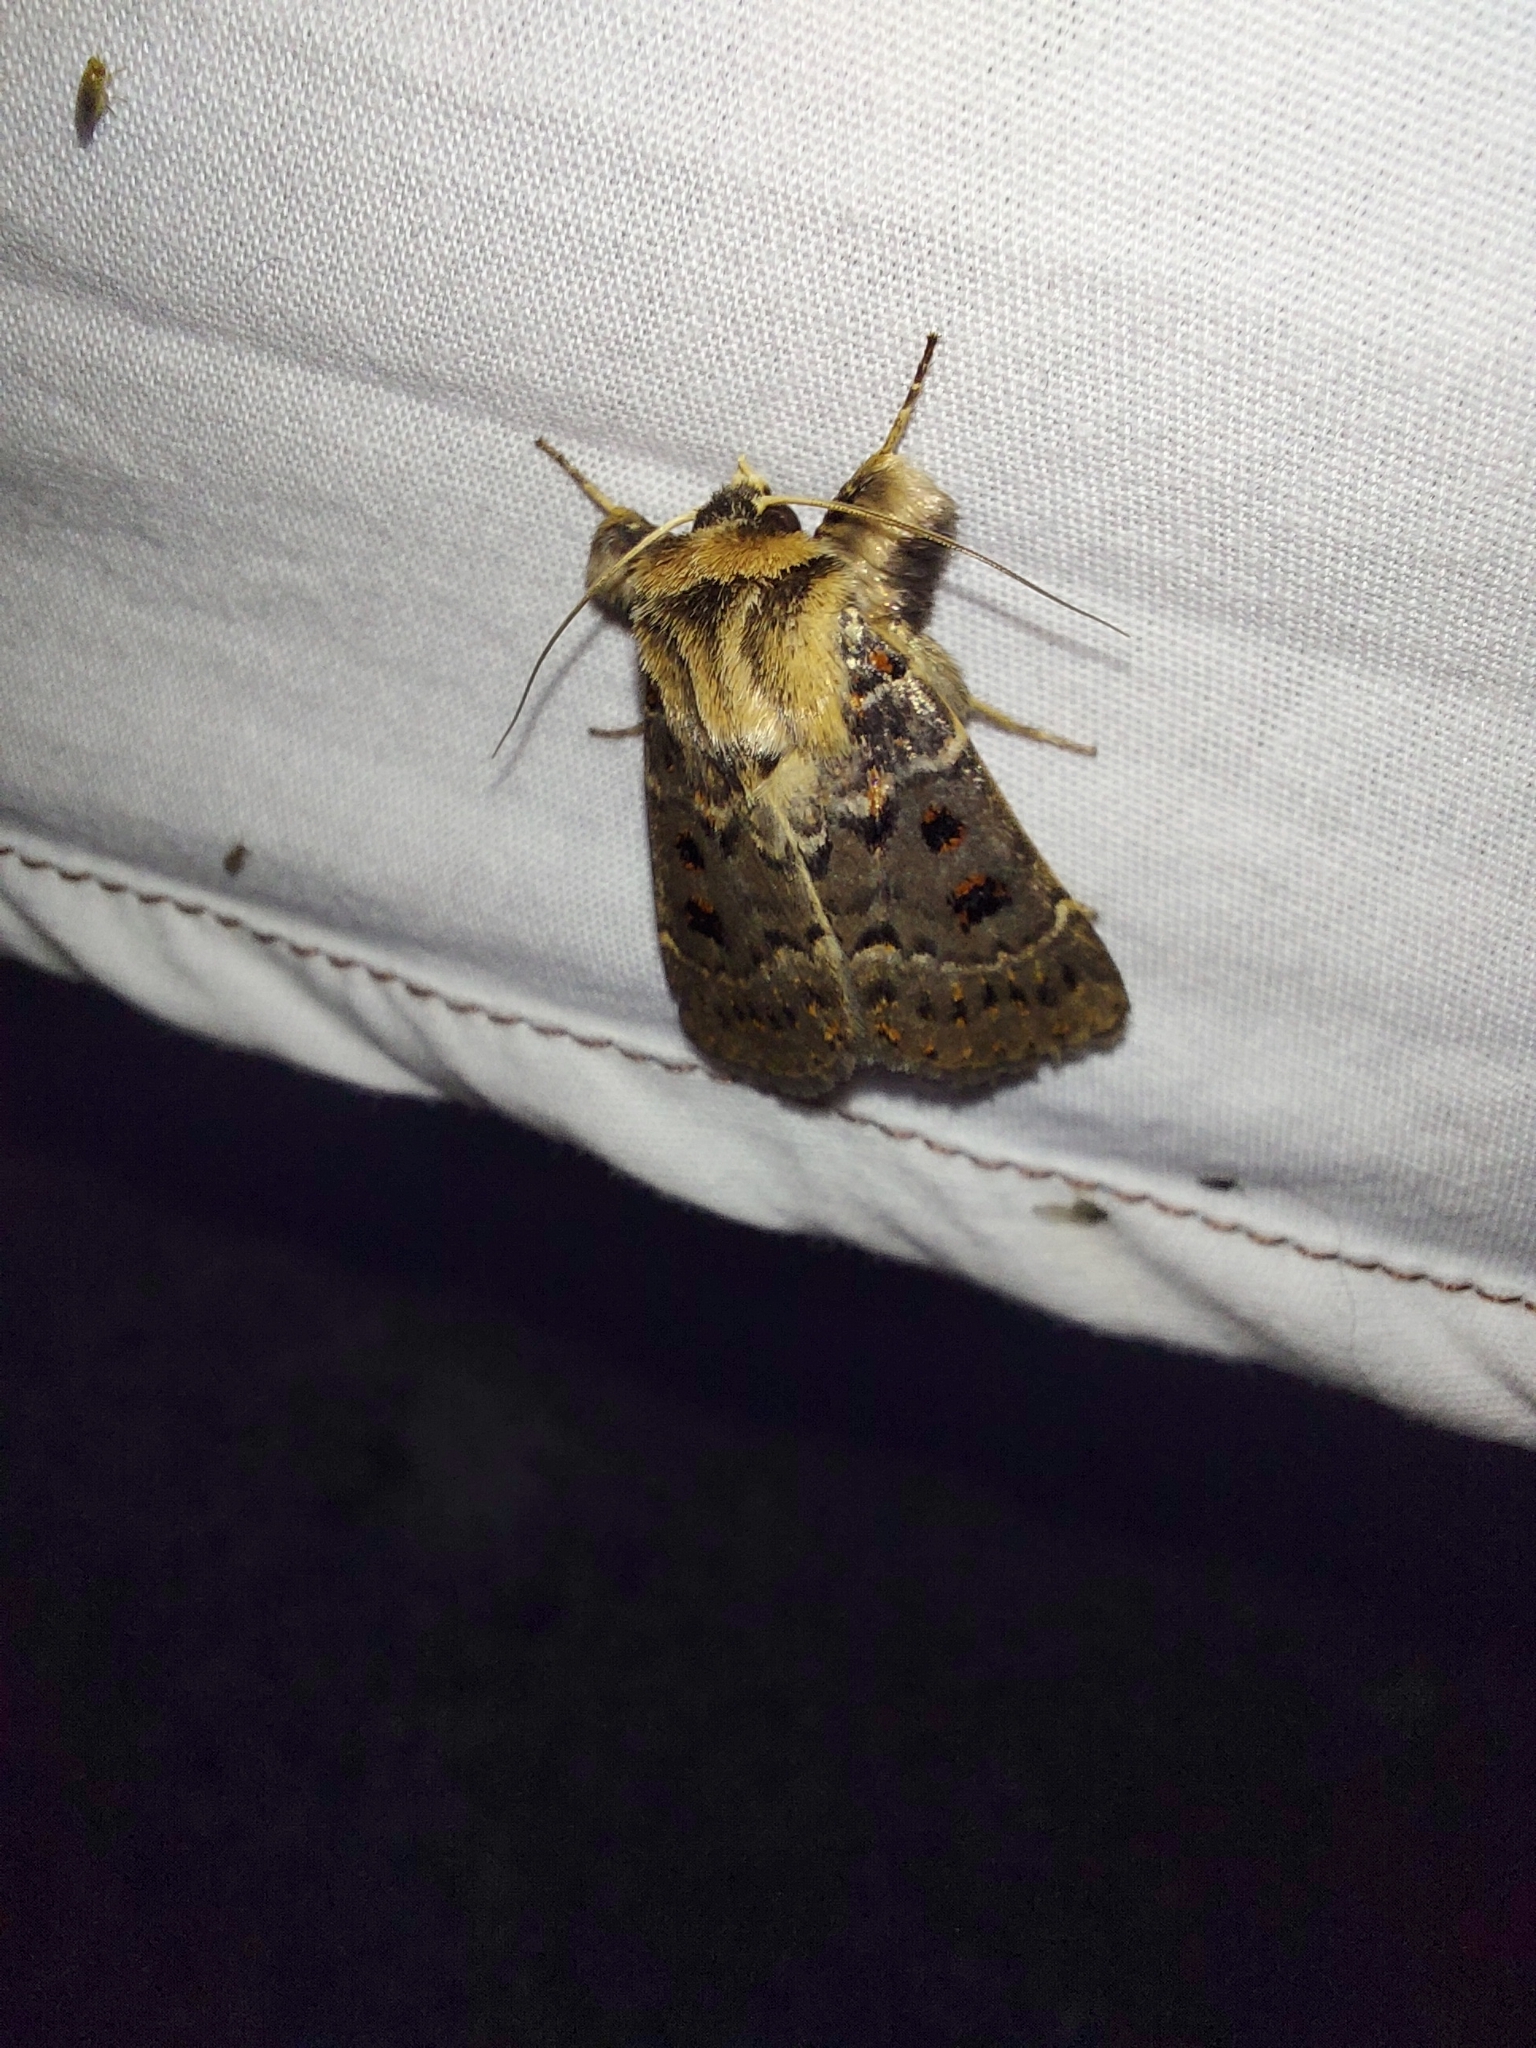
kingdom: Animalia
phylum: Arthropoda
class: Insecta
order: Lepidoptera
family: Noctuidae
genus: Proteuxoa
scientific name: Proteuxoa sanguinipuncta
